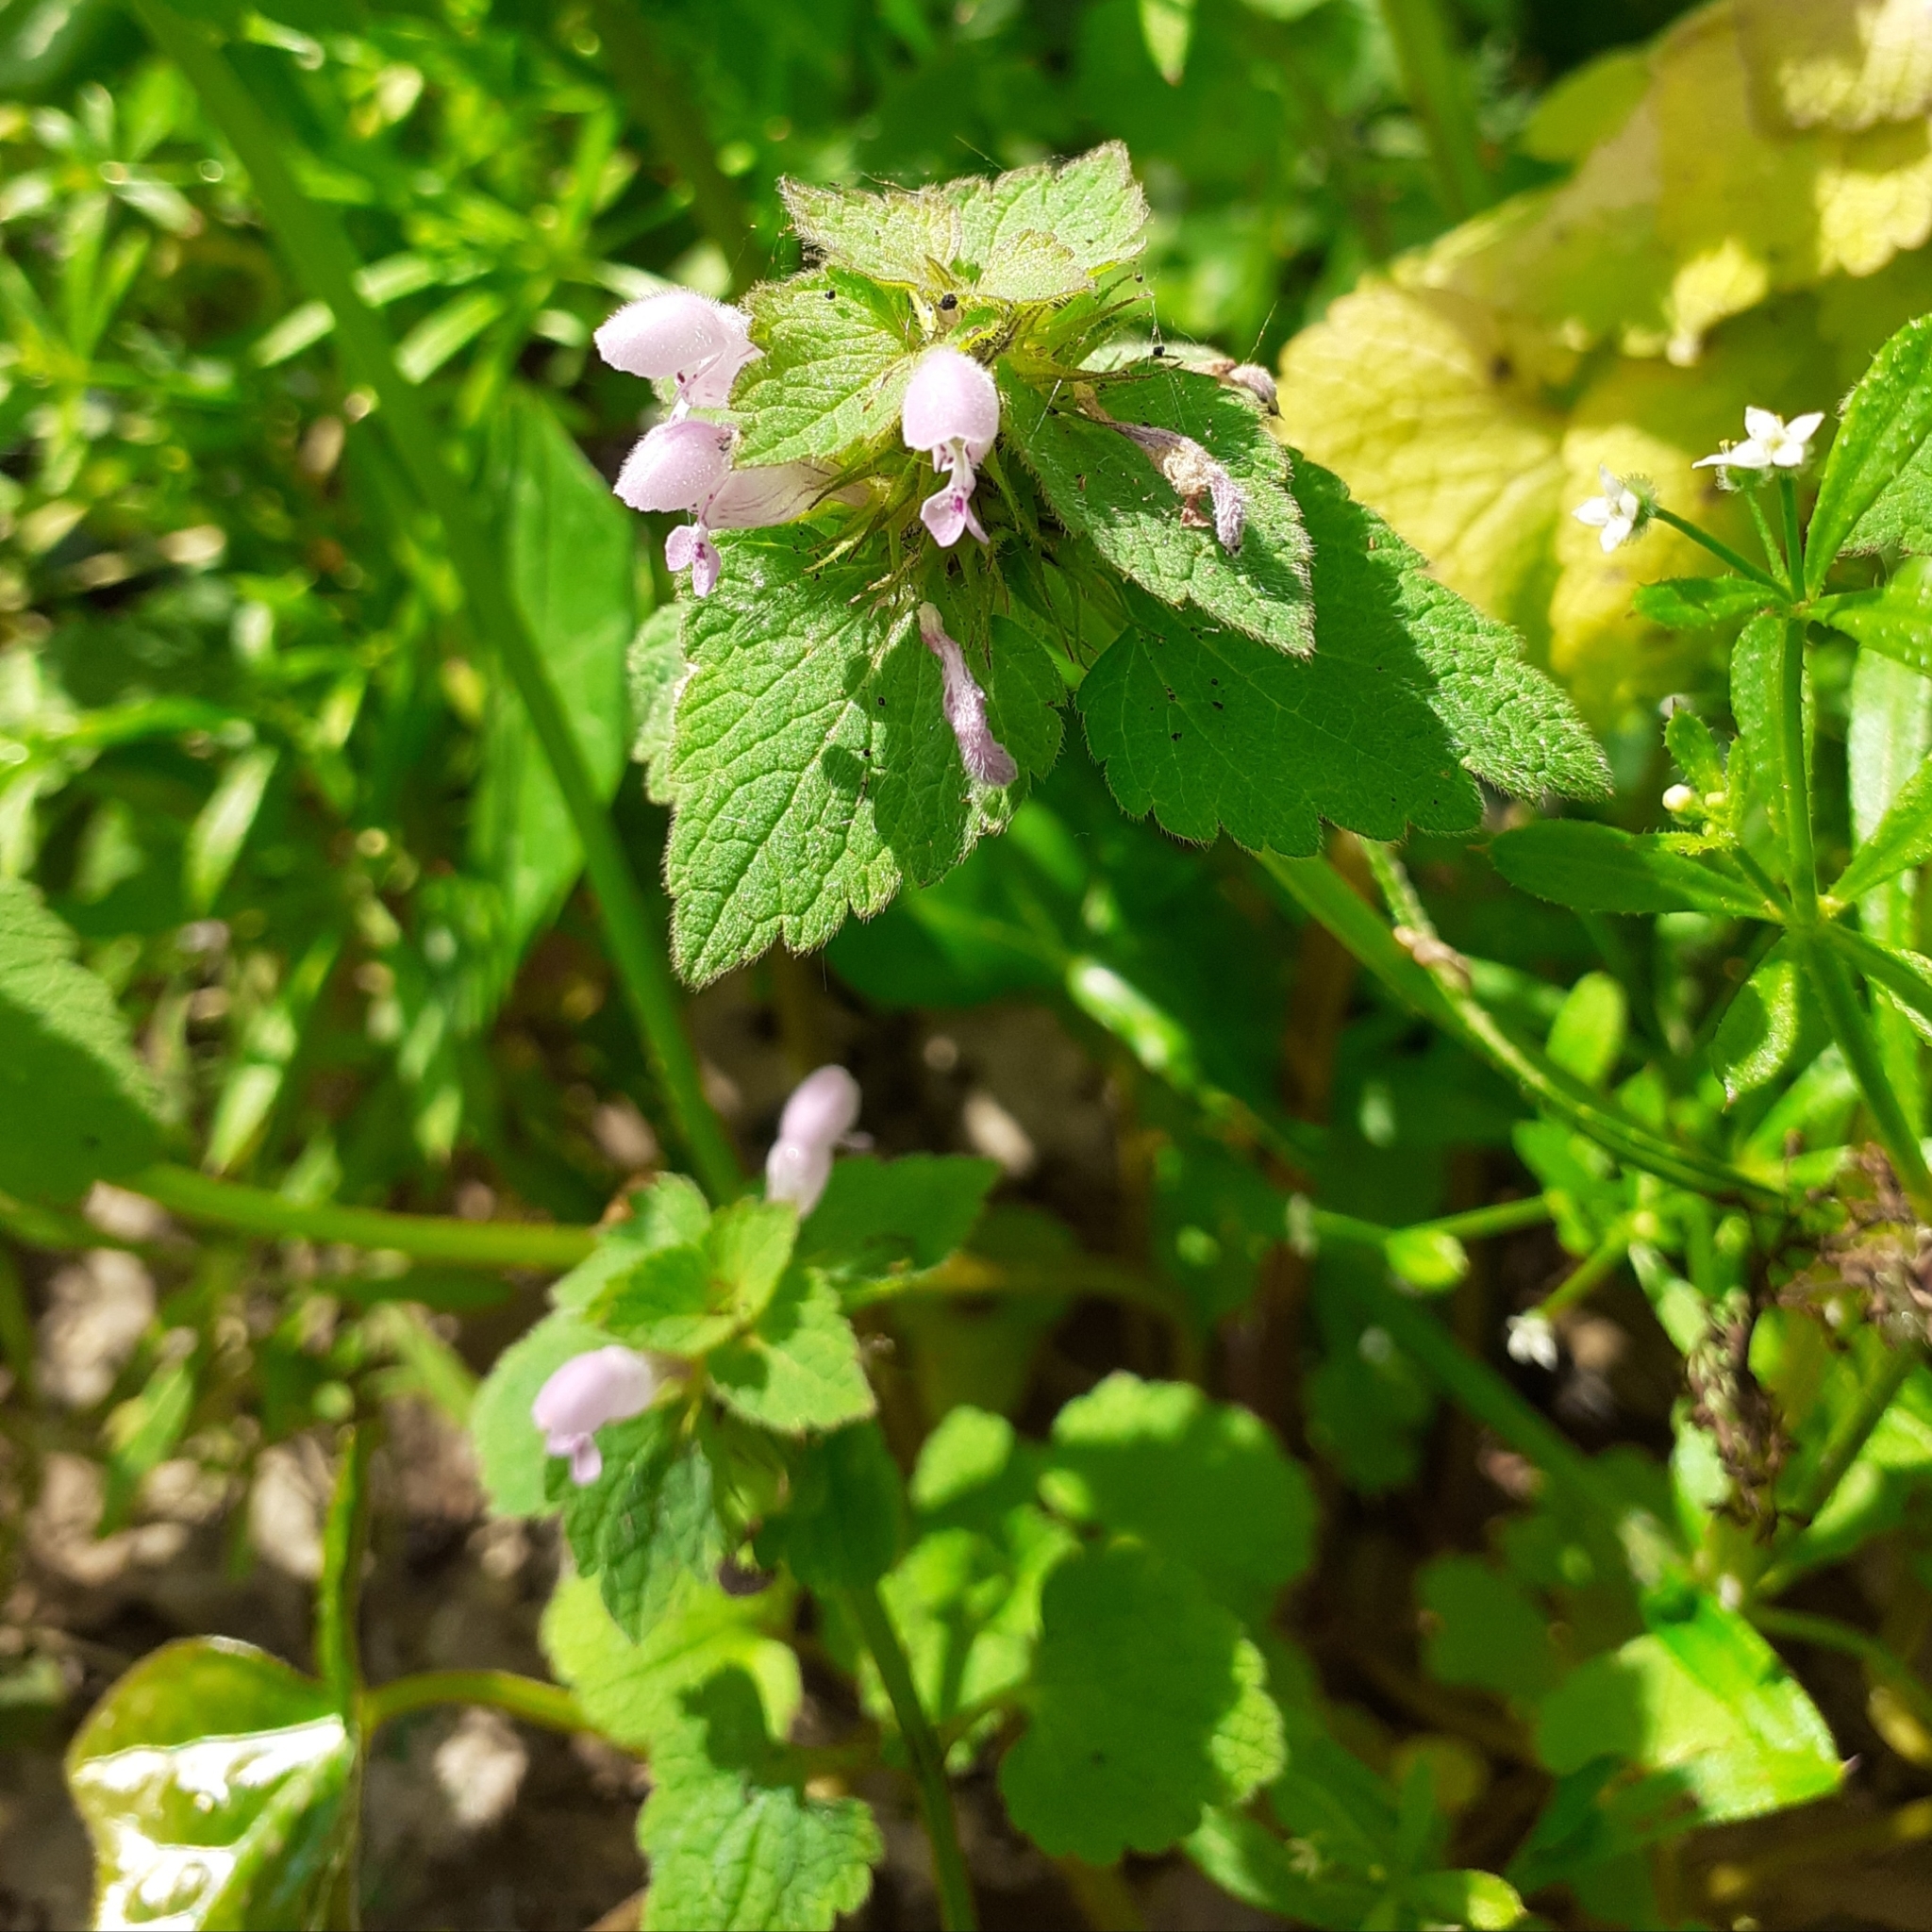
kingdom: Plantae
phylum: Tracheophyta
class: Magnoliopsida
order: Lamiales
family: Lamiaceae
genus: Lamium
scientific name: Lamium purpureum
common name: Red dead-nettle
